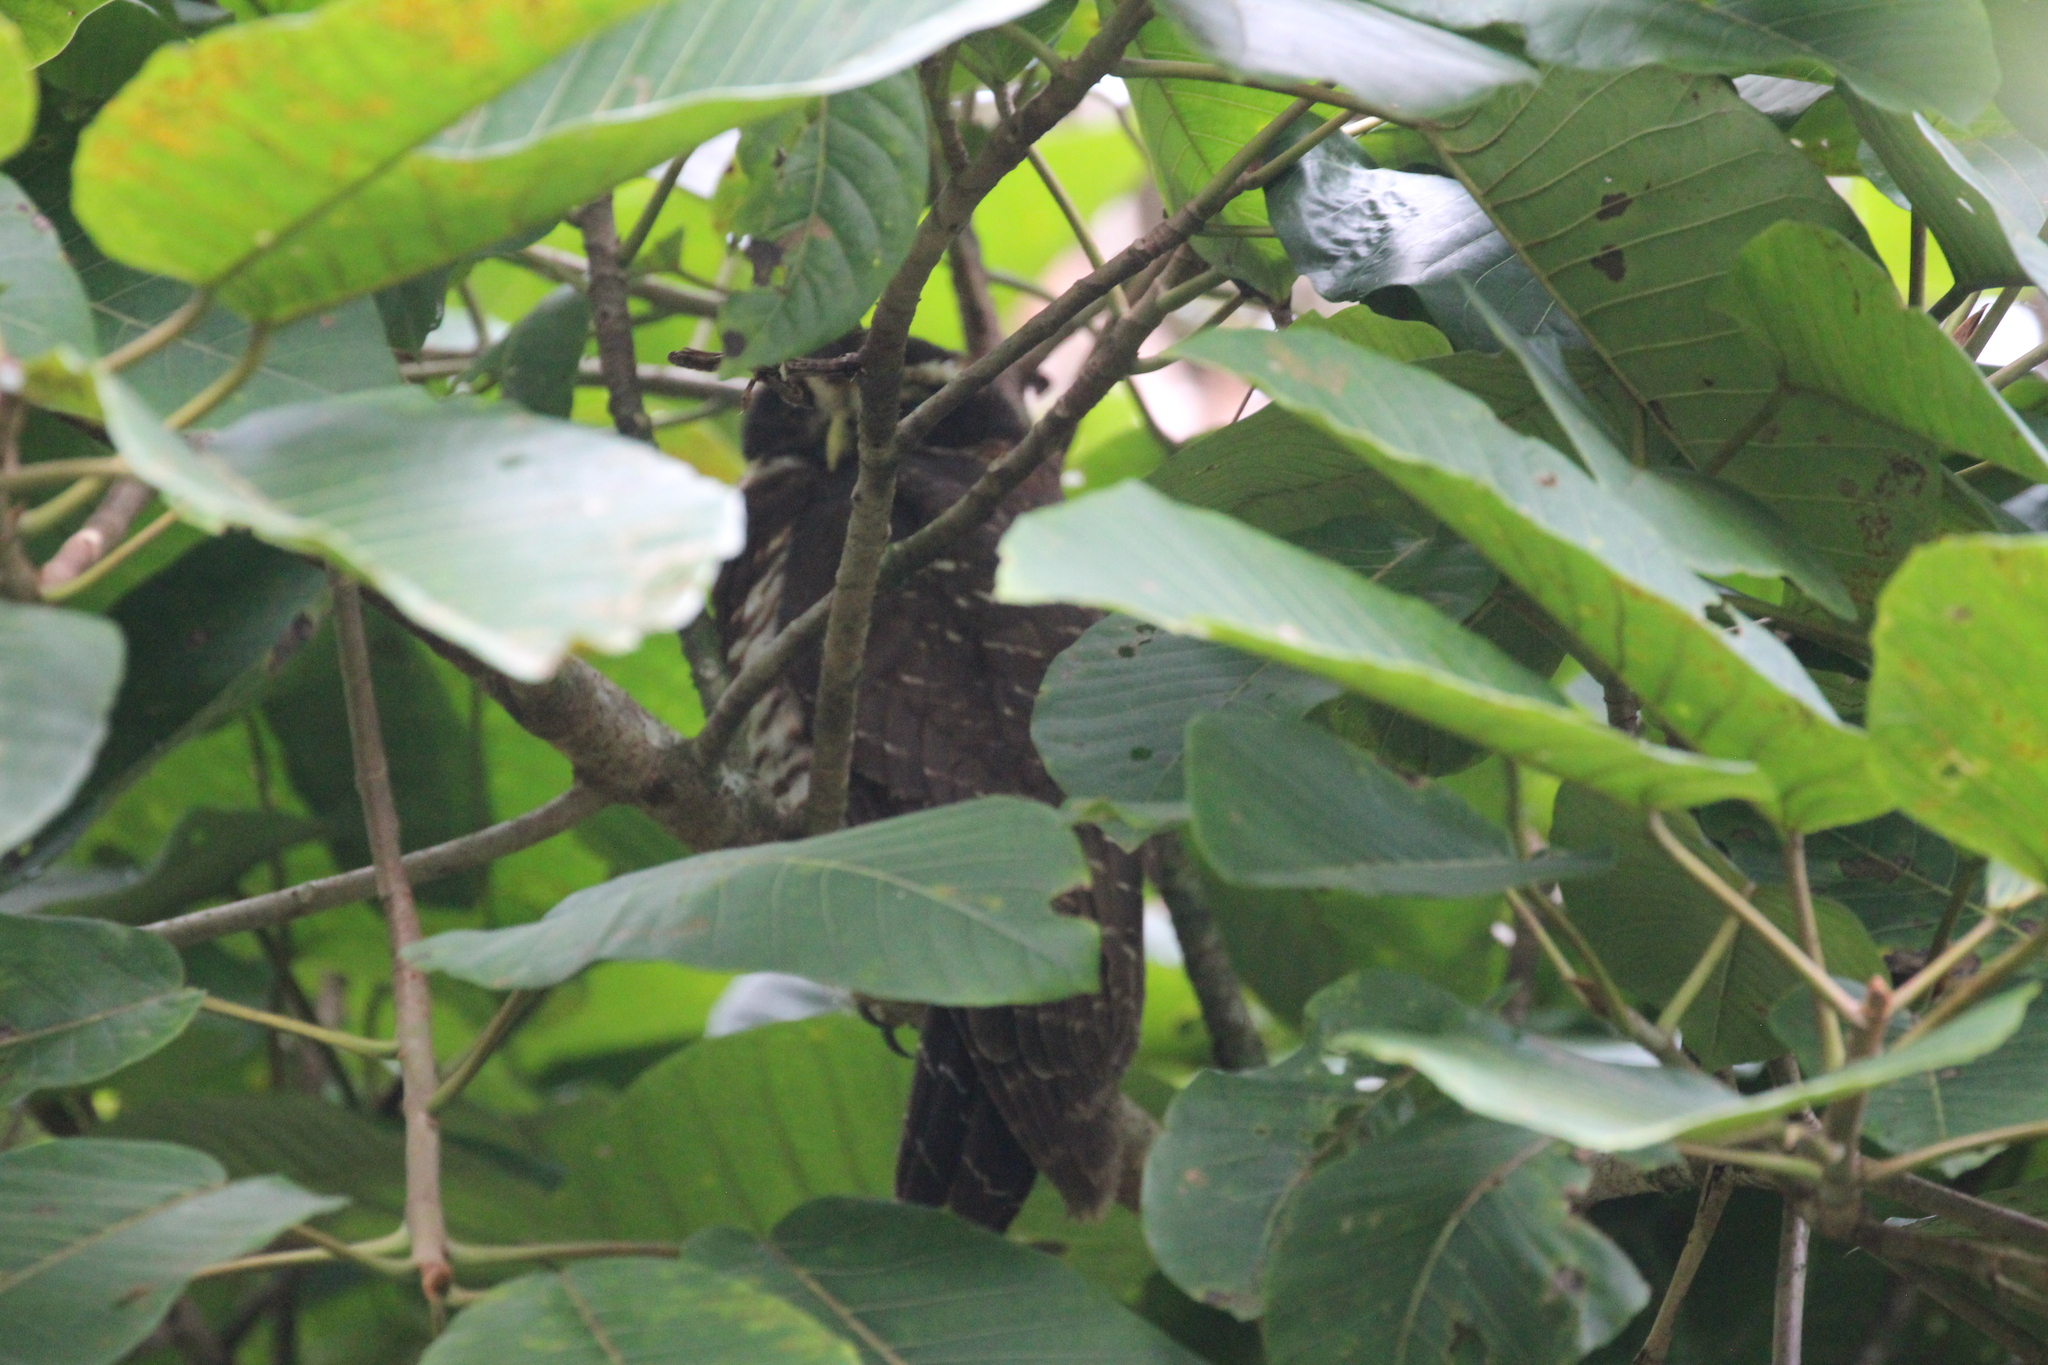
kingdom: Animalia
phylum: Chordata
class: Aves
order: Strigiformes
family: Strigidae
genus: Pulsatrix
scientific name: Pulsatrix melanota
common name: Band-bellied owl
